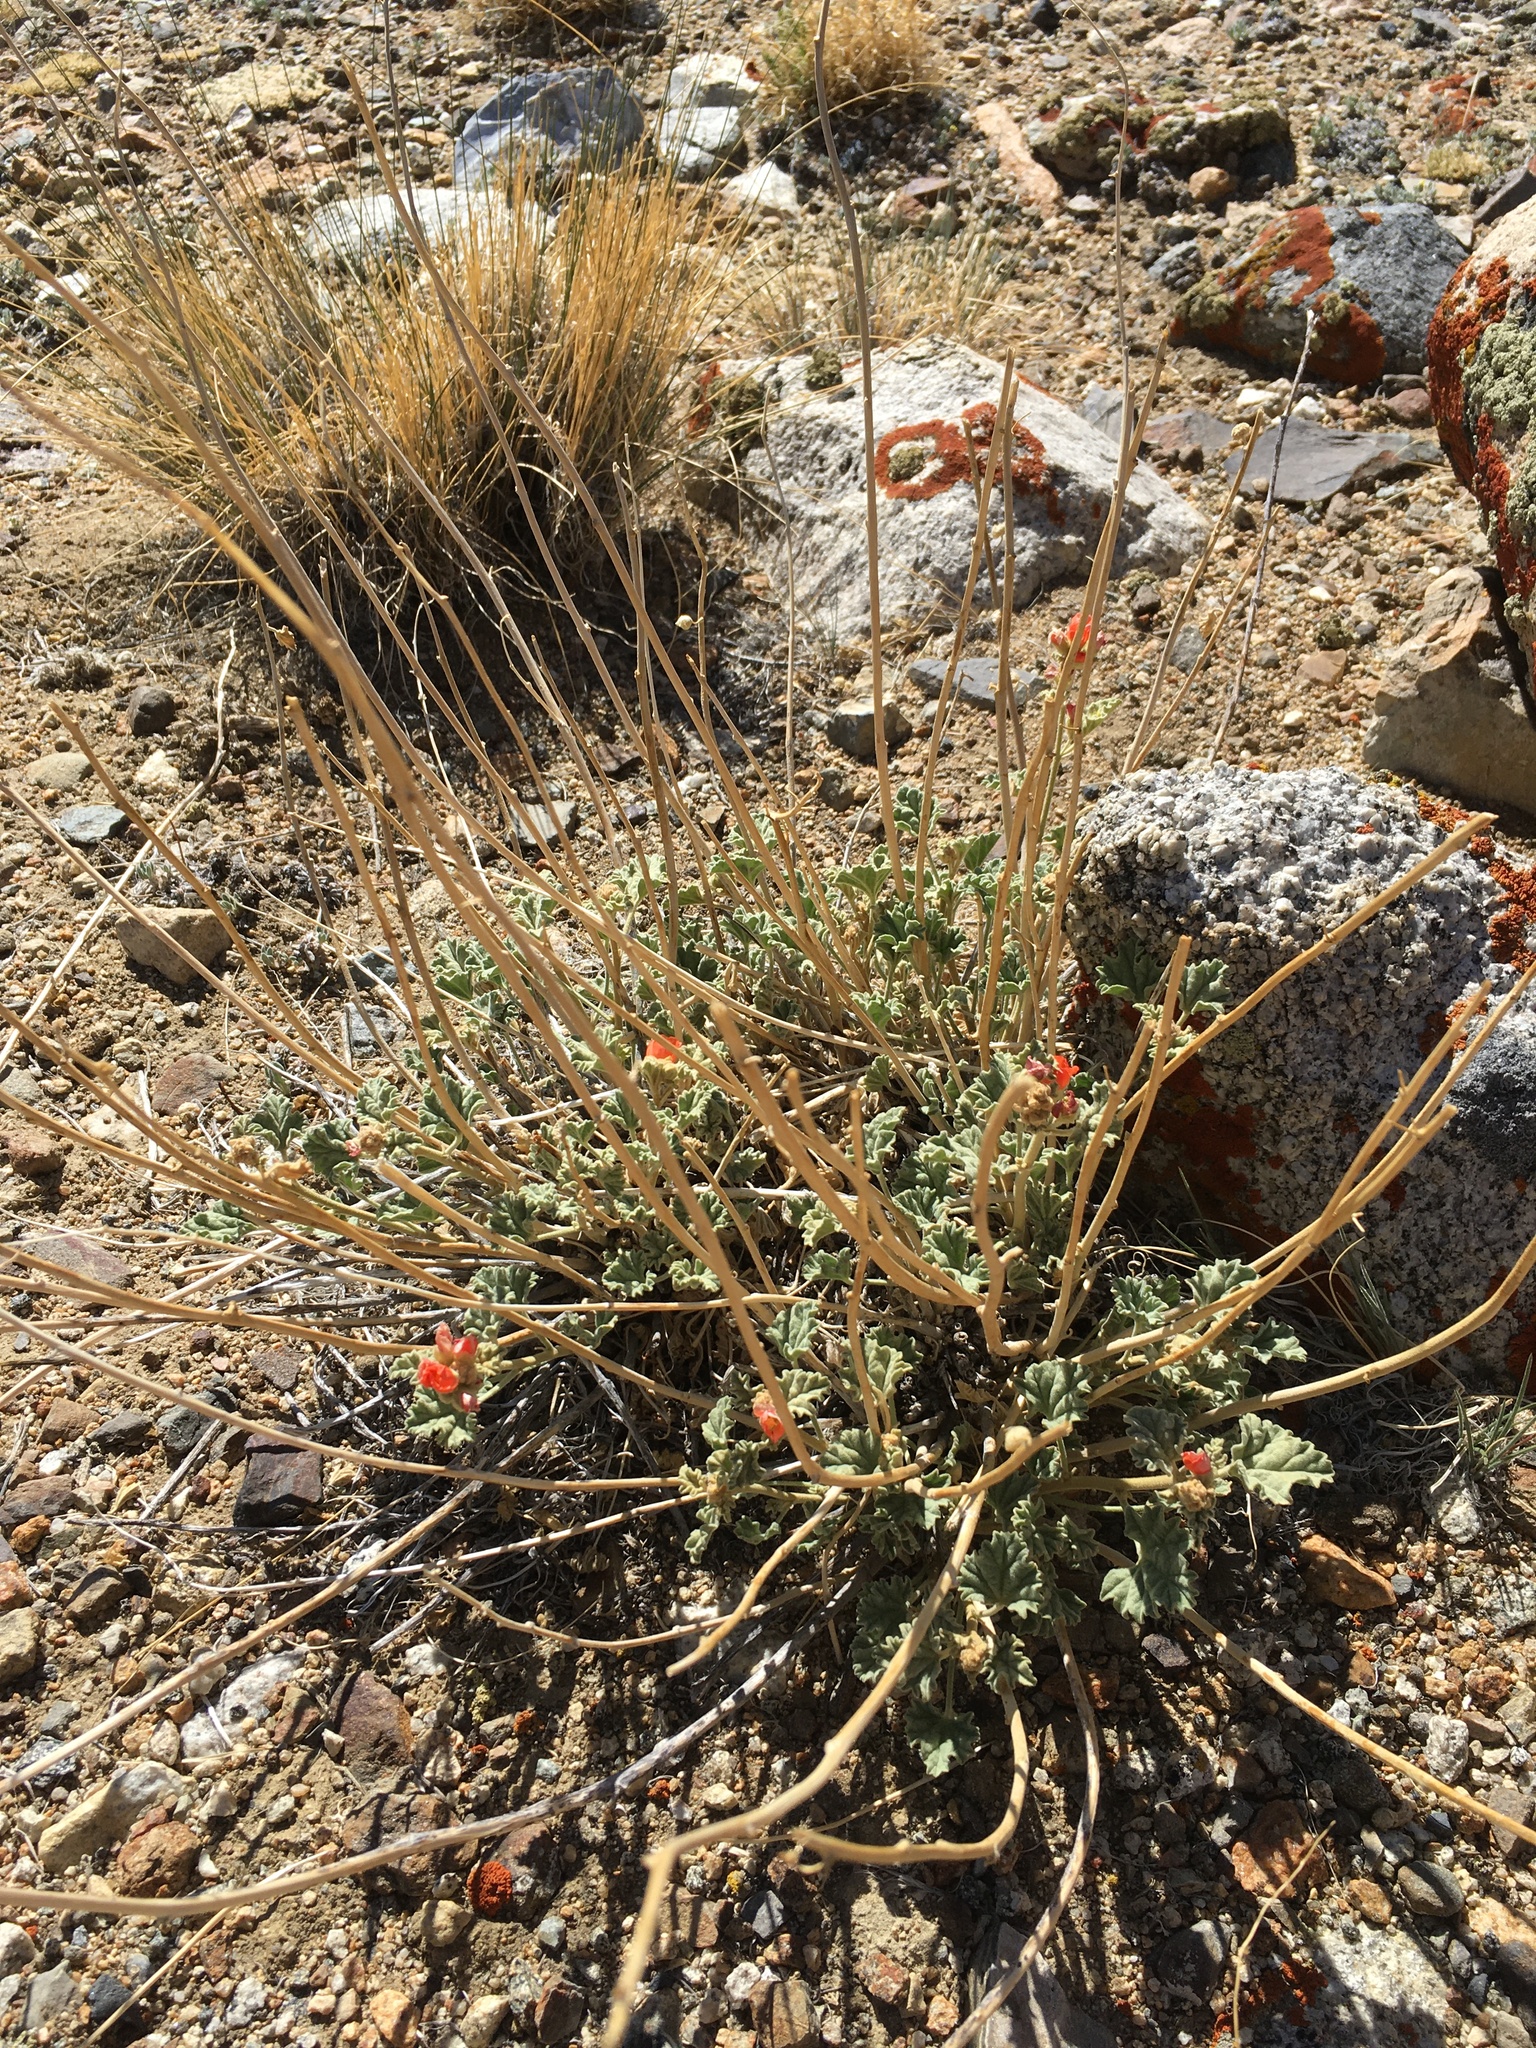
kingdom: Plantae
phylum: Tracheophyta
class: Magnoliopsida
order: Malvales
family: Malvaceae
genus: Sphaeralcea
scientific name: Sphaeralcea ambigua
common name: Apricot globe-mallow
